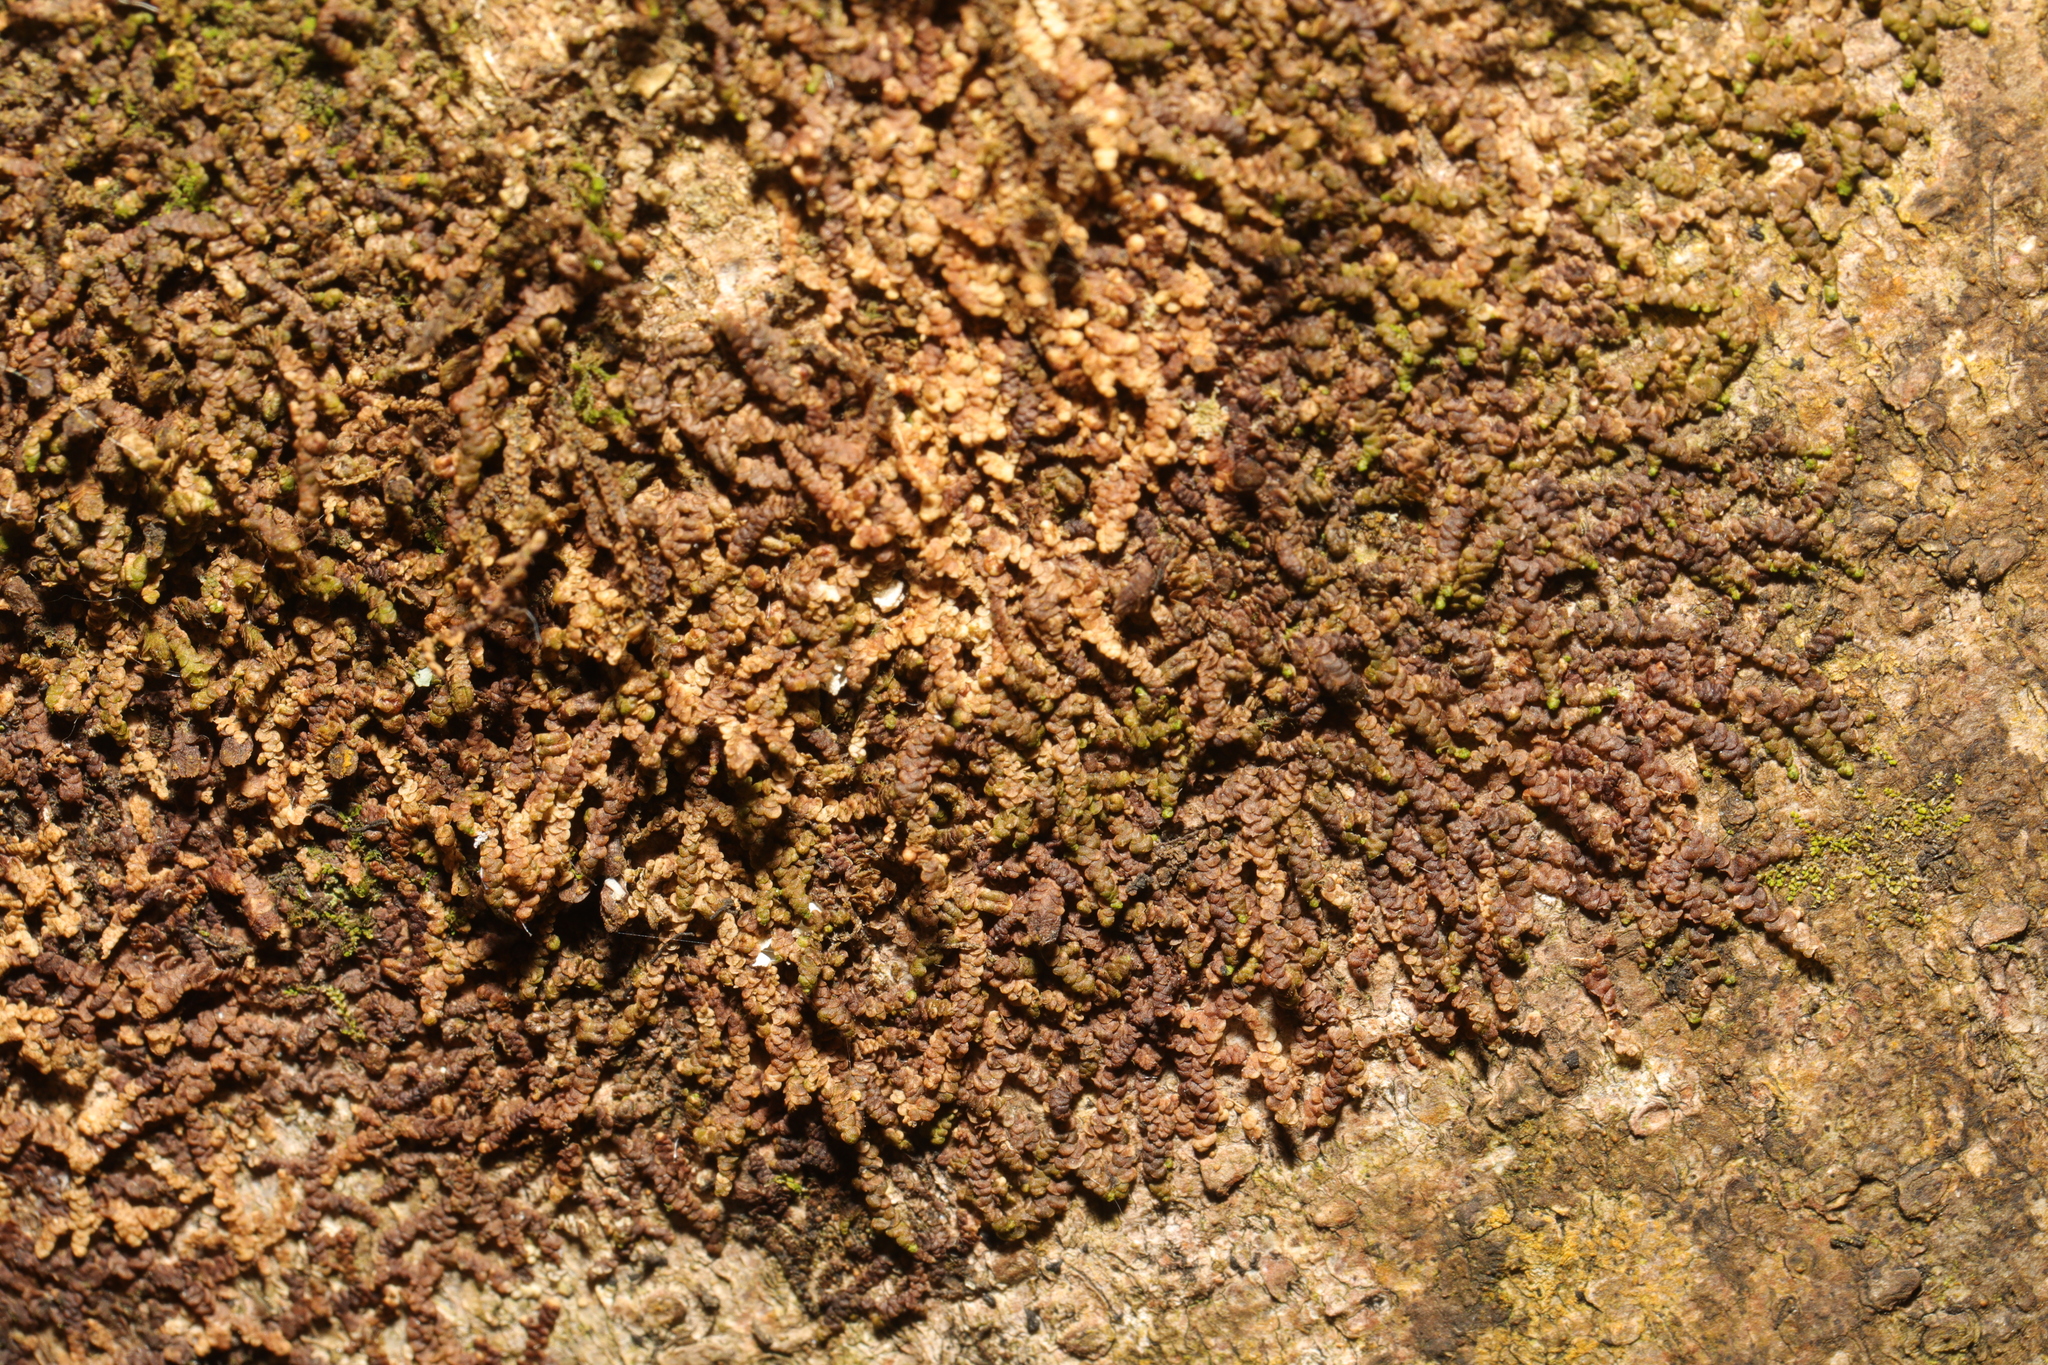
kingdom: Plantae
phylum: Marchantiophyta
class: Jungermanniopsida
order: Porellales
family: Frullaniaceae
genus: Frullania
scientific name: Frullania dilatata
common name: Dilated scalewort
